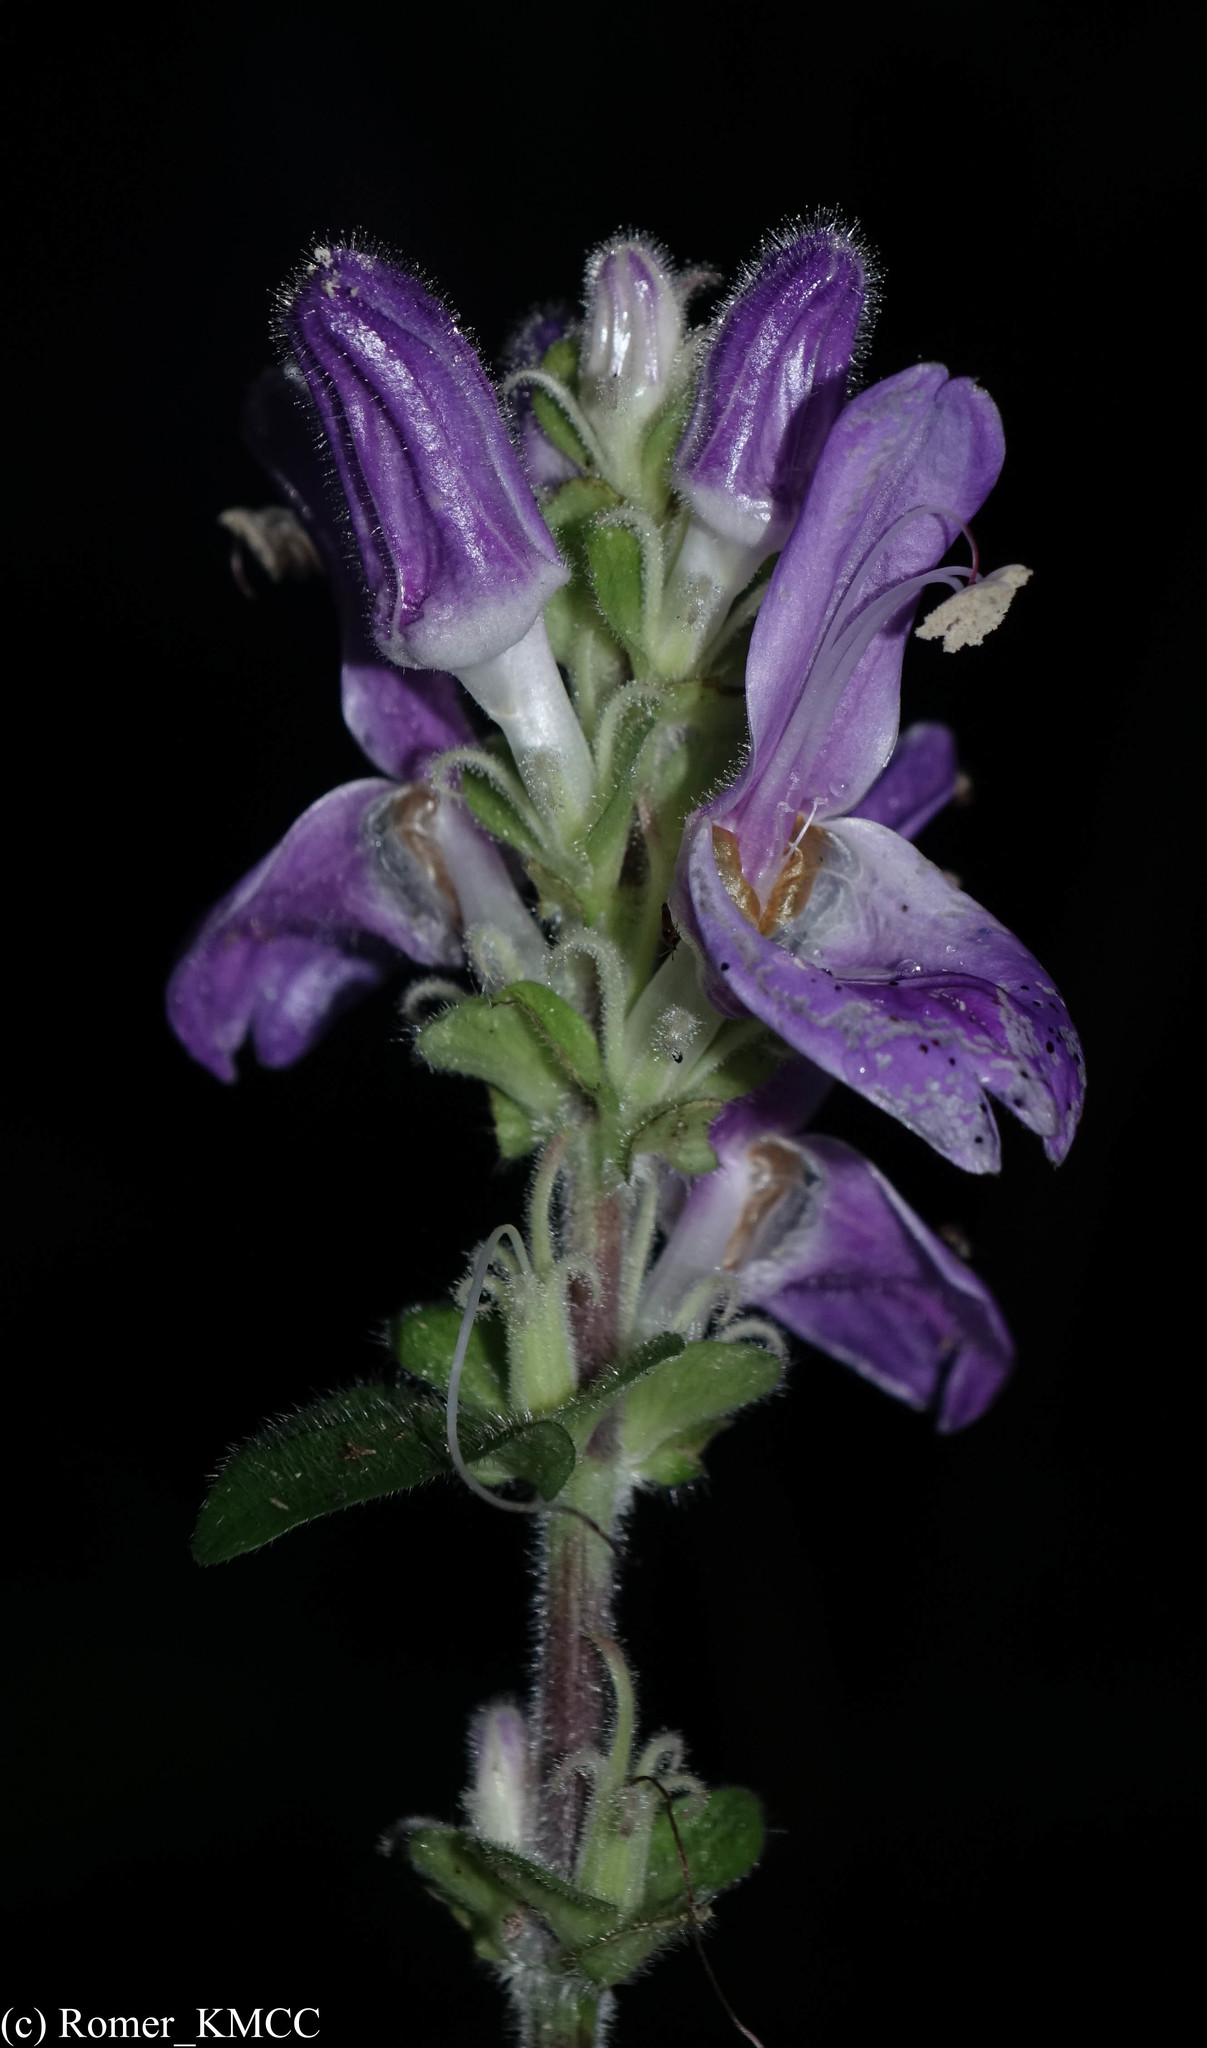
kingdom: Plantae
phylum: Tracheophyta
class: Magnoliopsida
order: Lamiales
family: Acanthaceae
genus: Brillantaisia
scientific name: Brillantaisia madagascariensis
